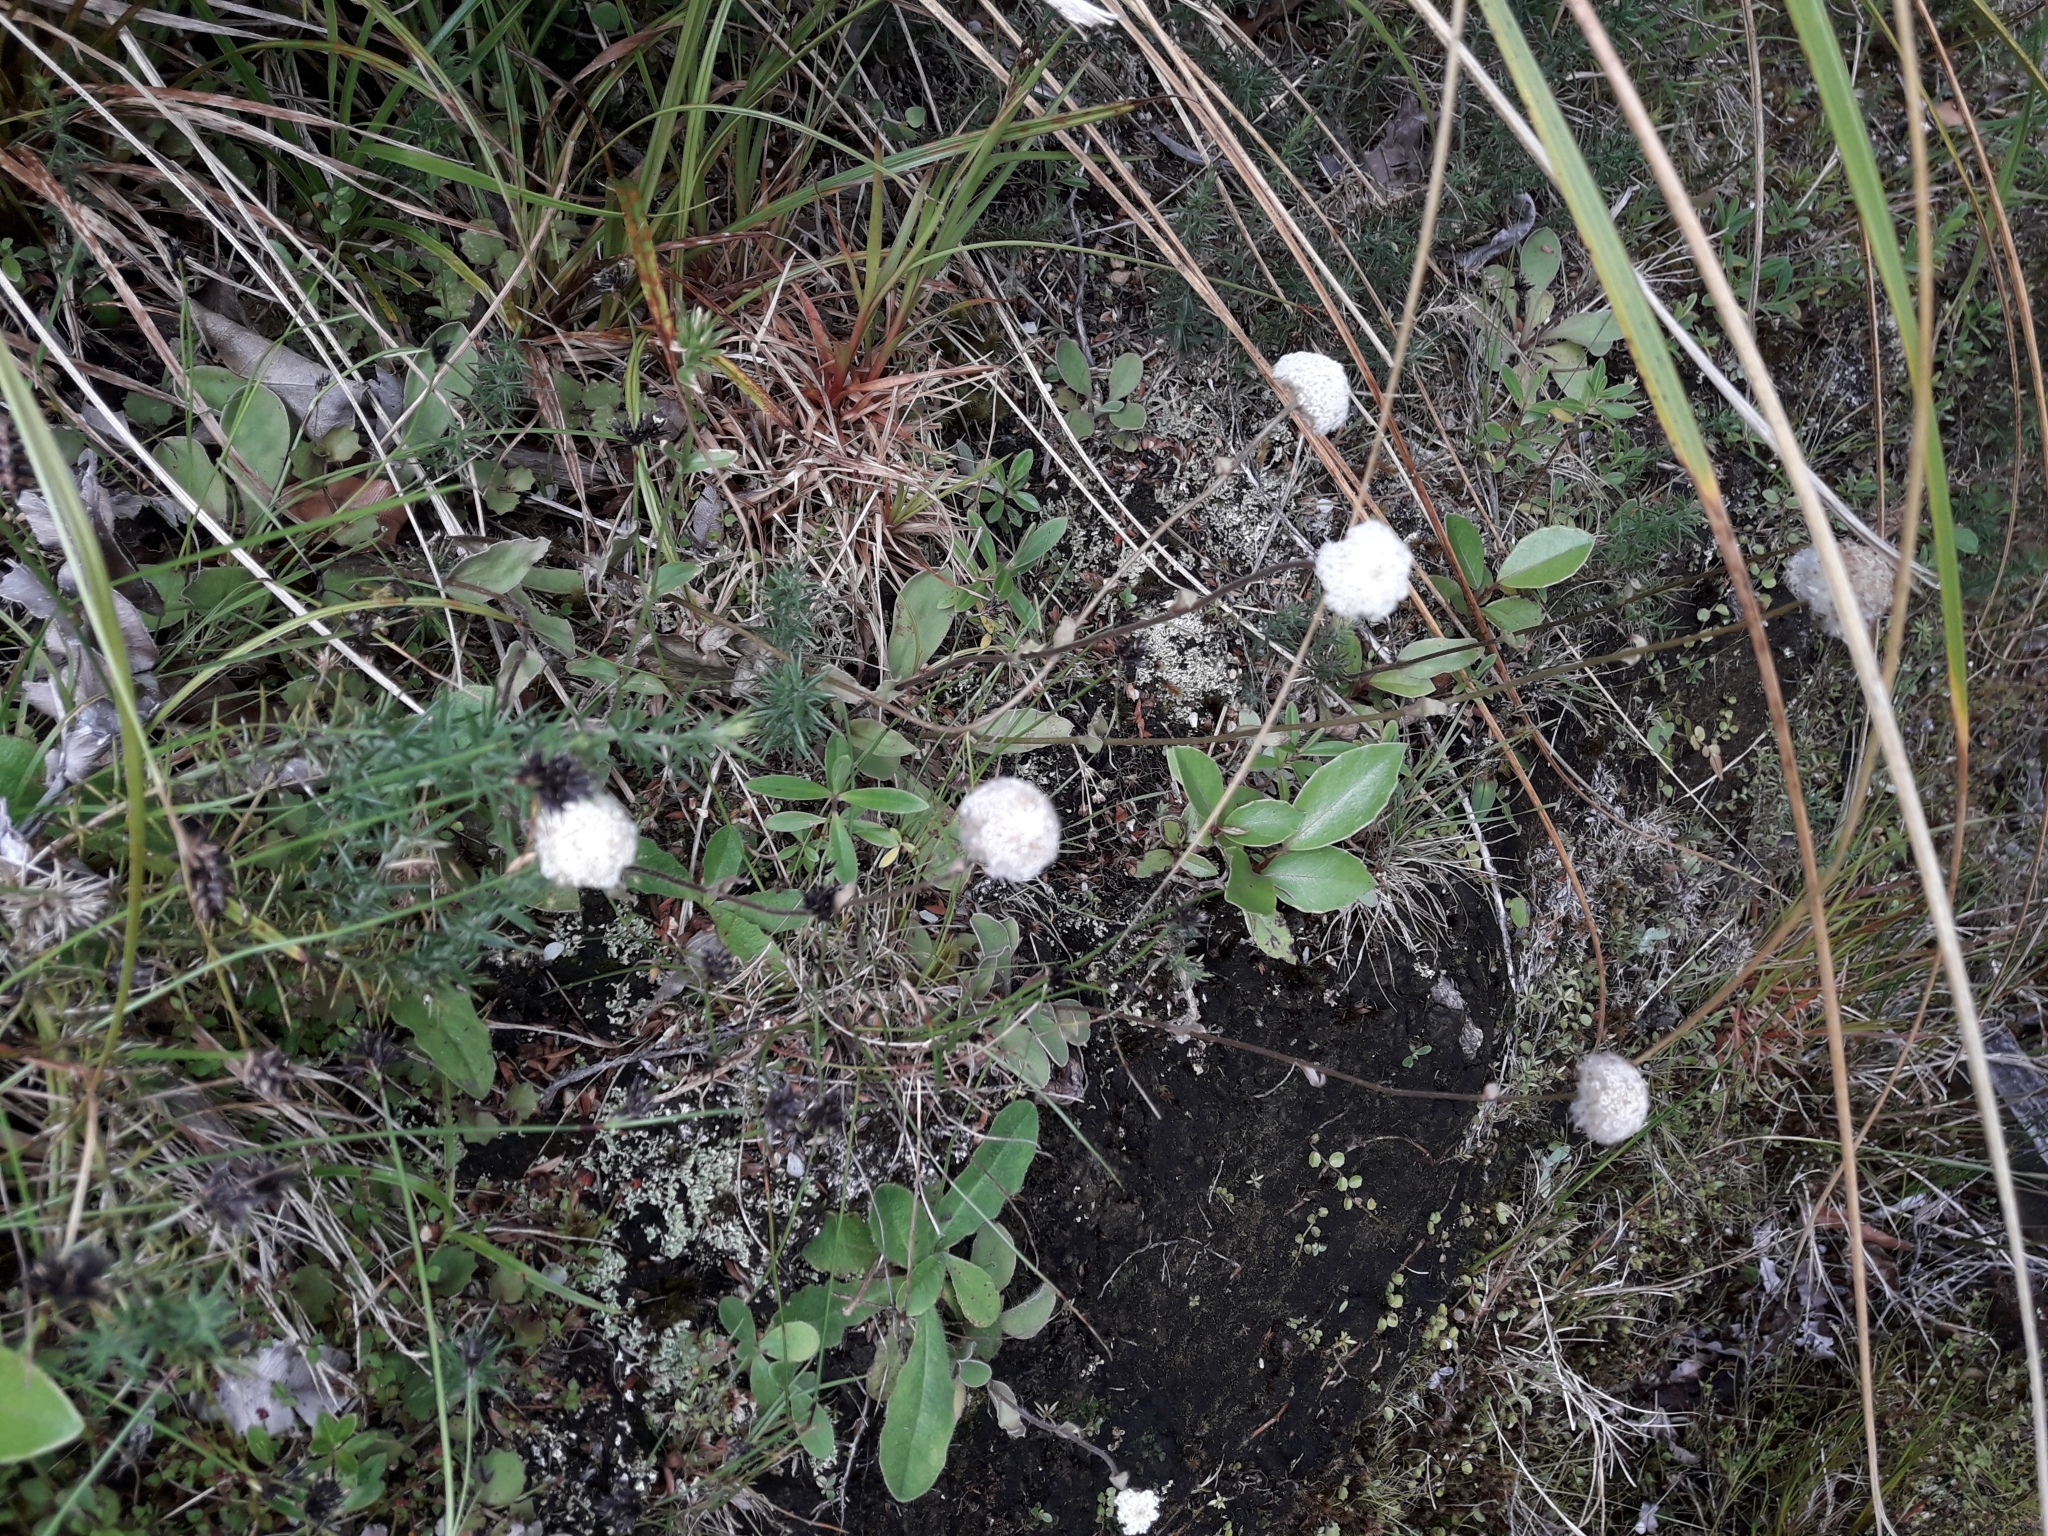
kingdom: Plantae
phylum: Tracheophyta
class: Magnoliopsida
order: Asterales
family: Asteraceae
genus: Craspedia
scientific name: Craspedia uniflora
